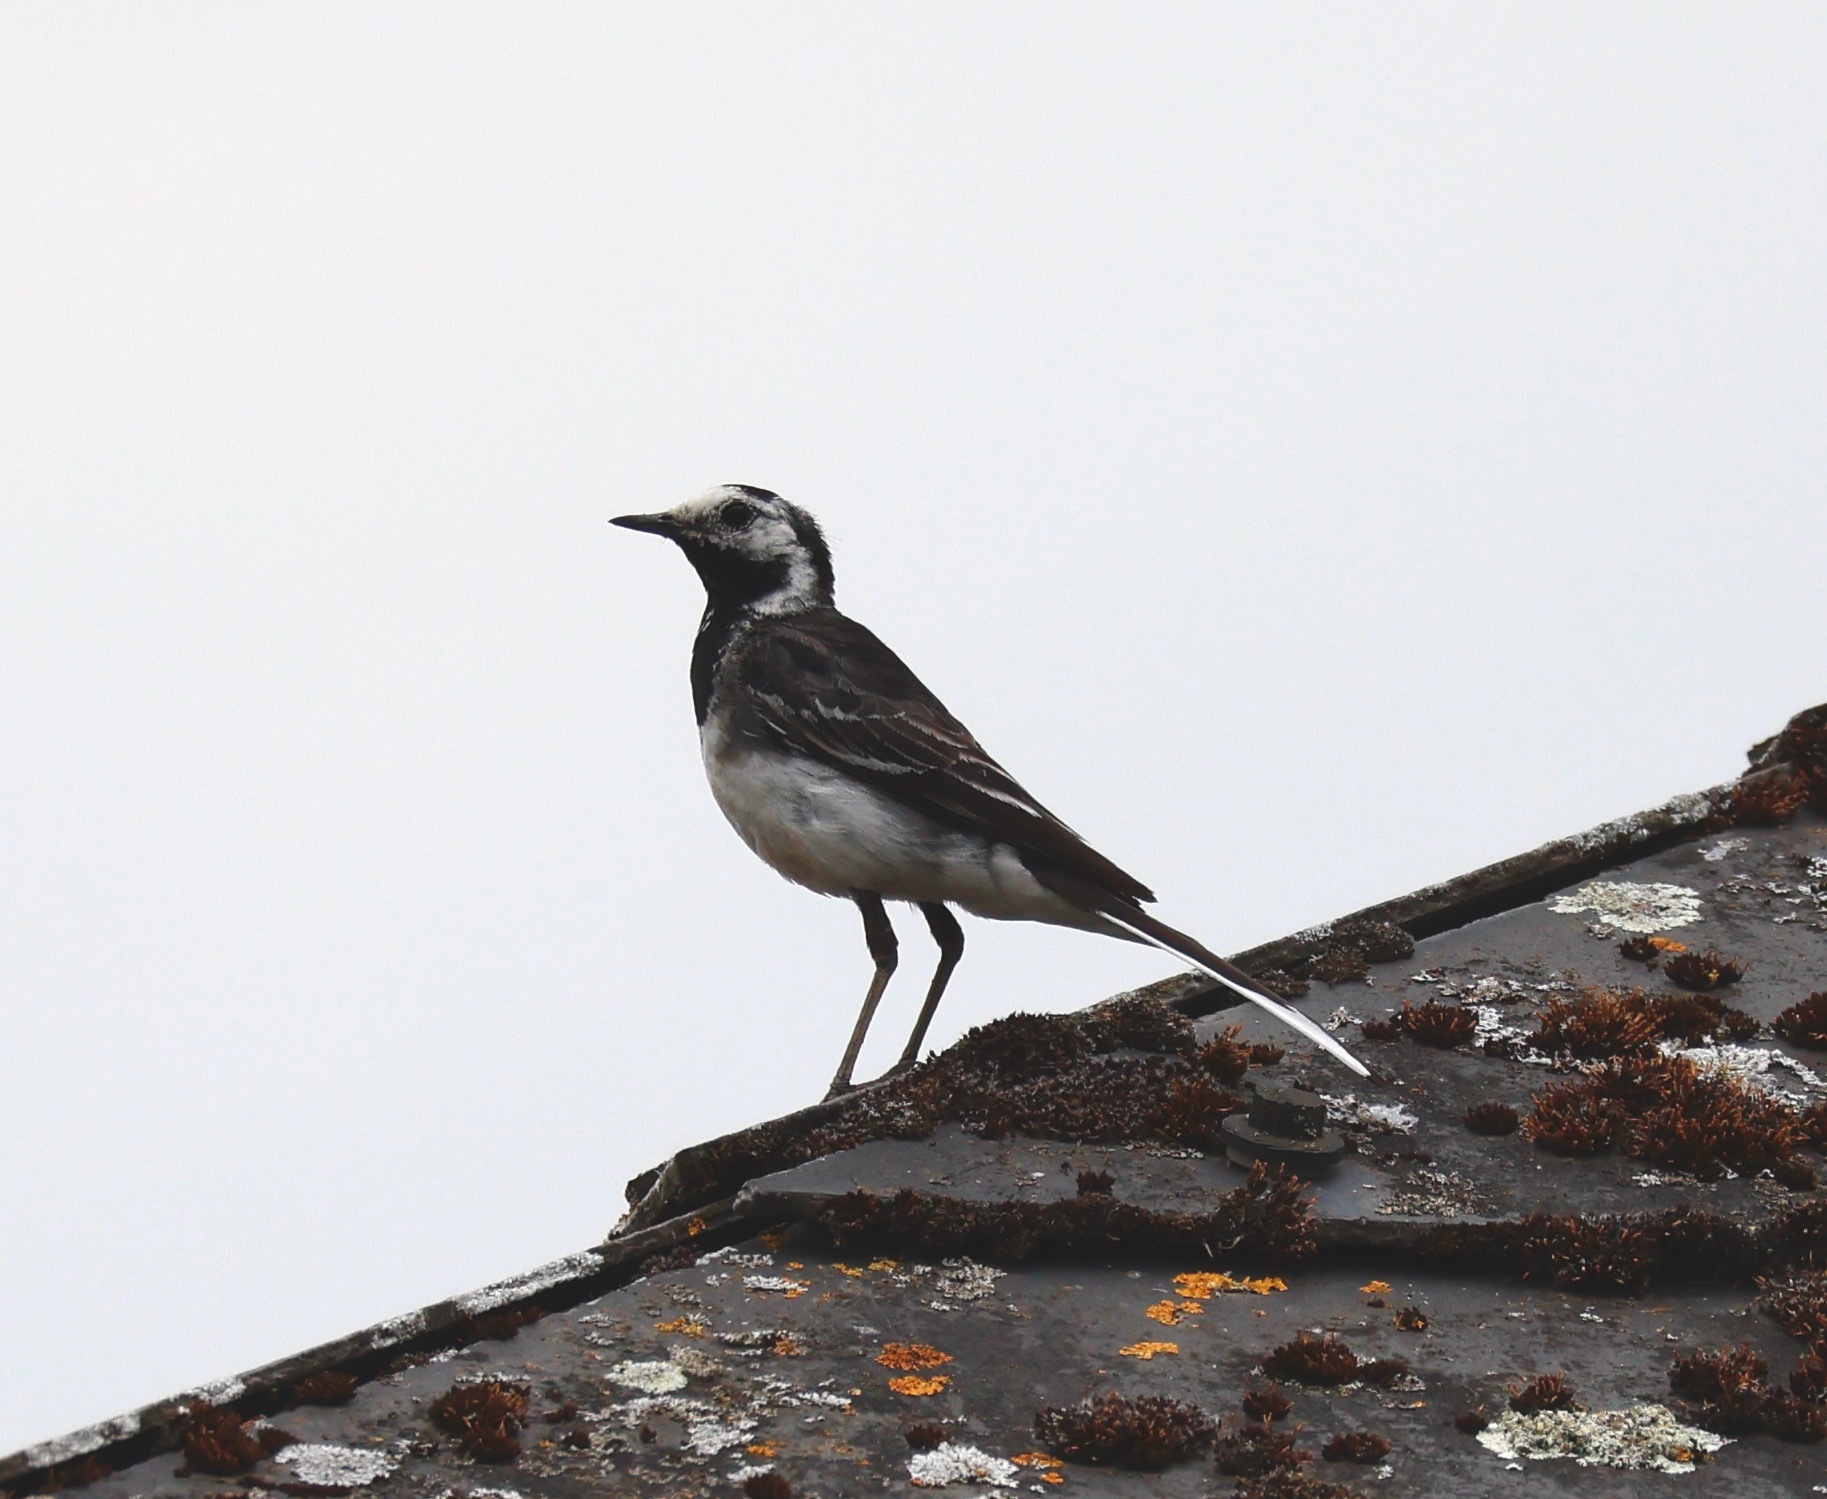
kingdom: Animalia
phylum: Chordata
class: Aves
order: Passeriformes
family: Motacillidae
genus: Motacilla
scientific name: Motacilla alba
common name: White wagtail
